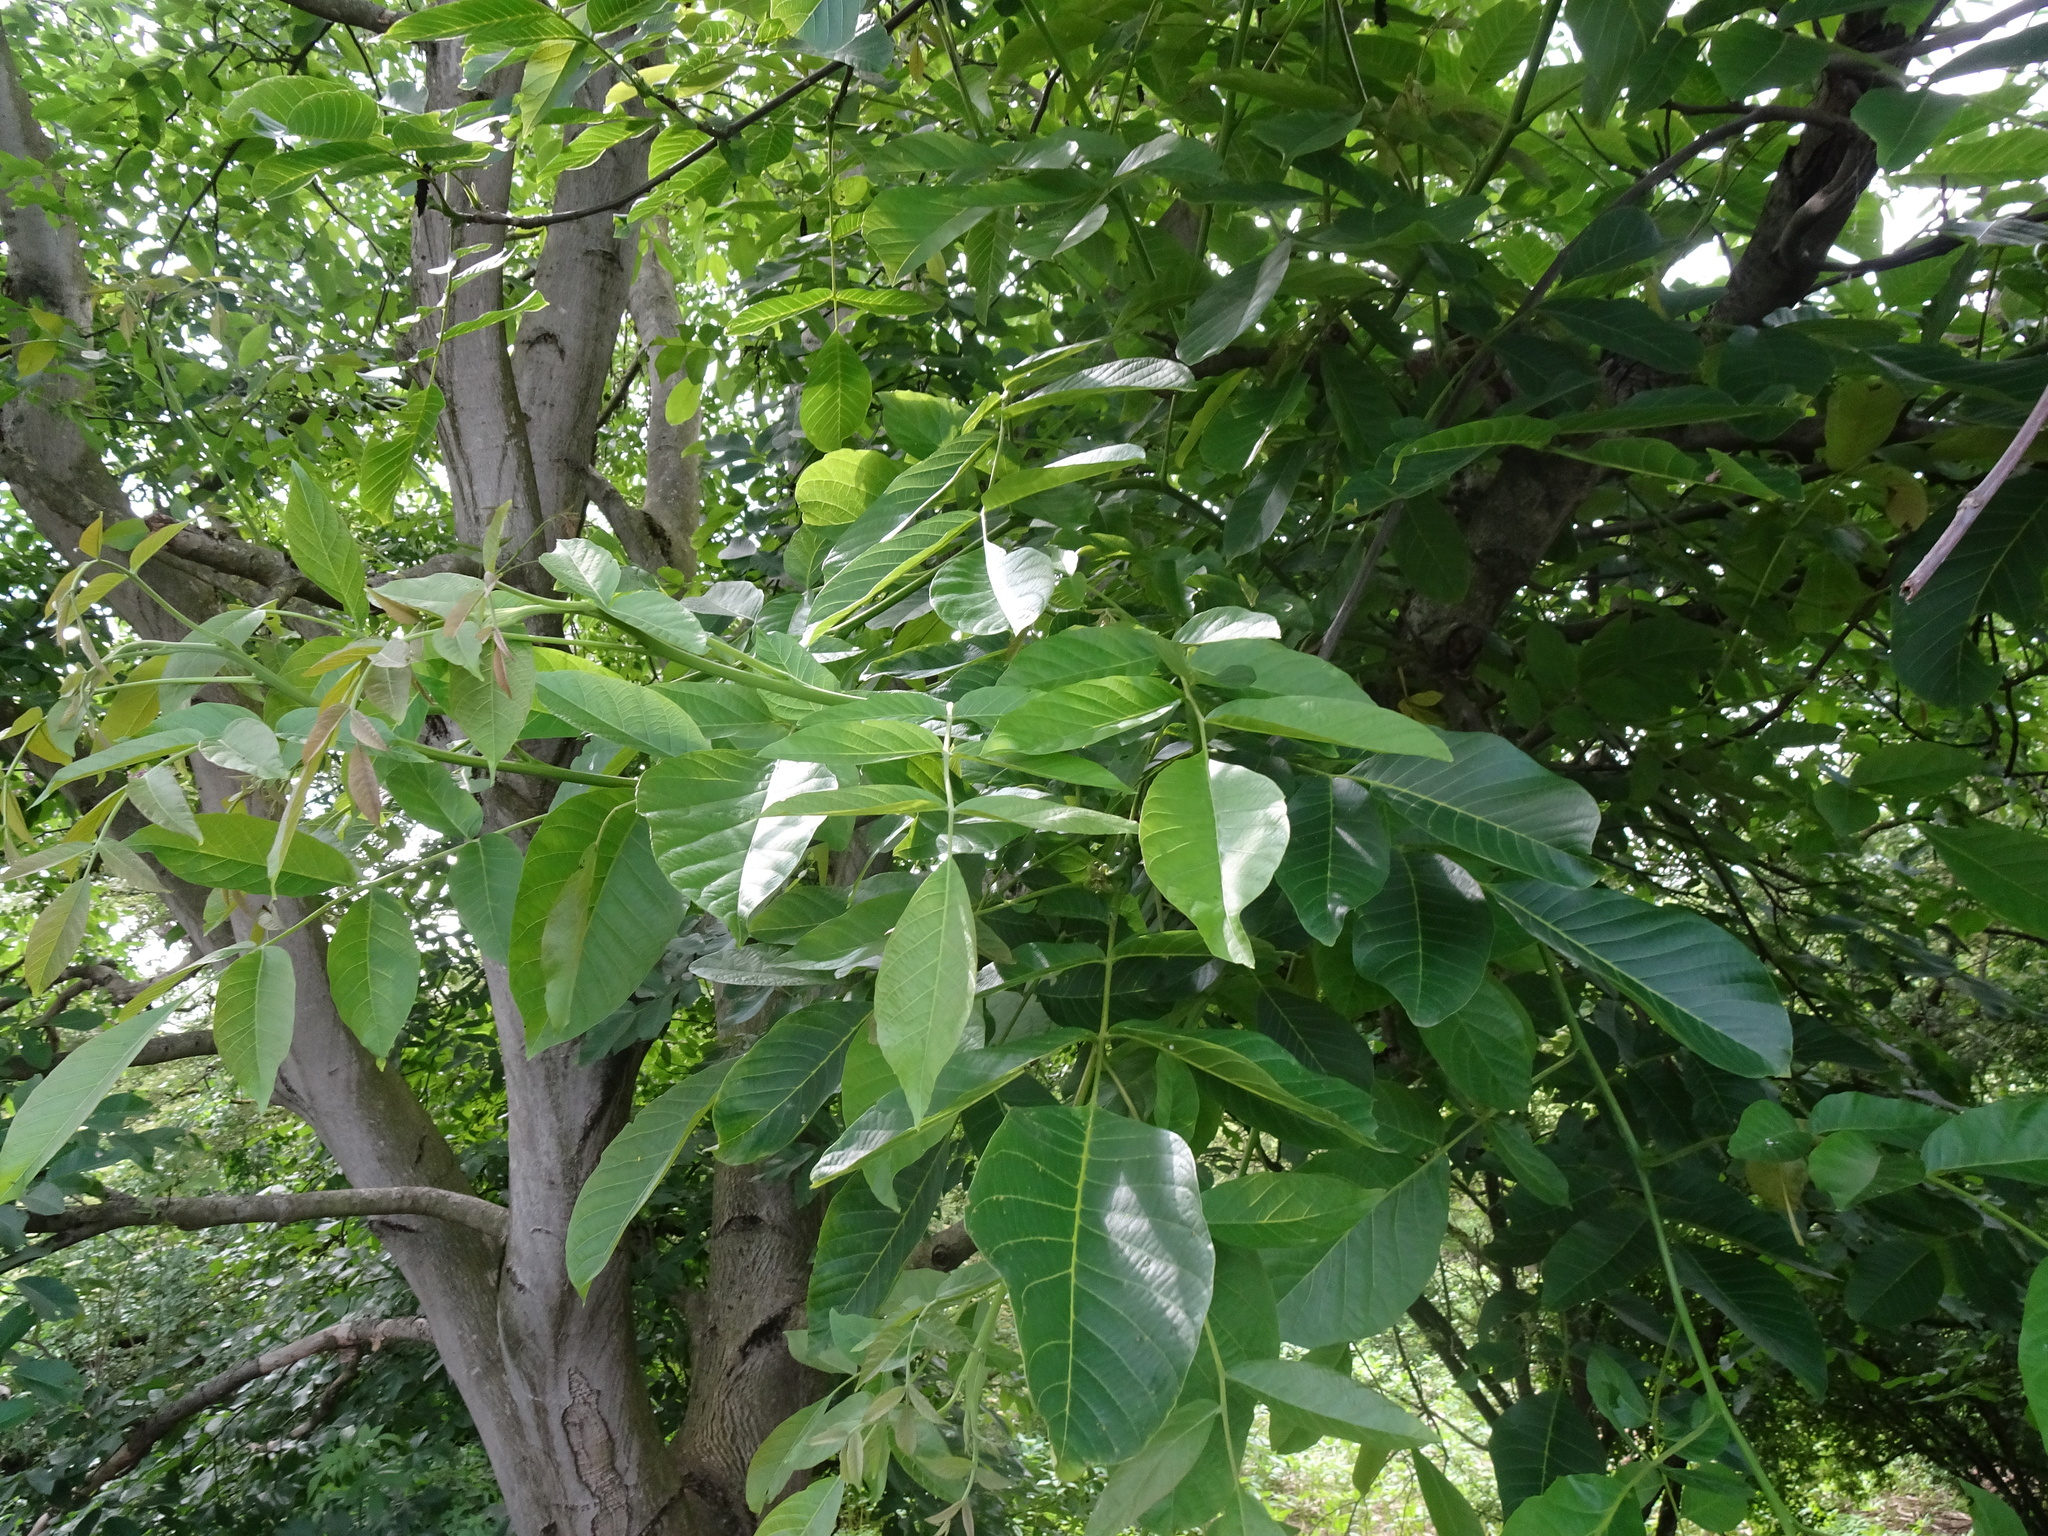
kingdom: Plantae
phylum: Tracheophyta
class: Magnoliopsida
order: Fagales
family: Juglandaceae
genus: Juglans
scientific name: Juglans regia
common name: Walnut
